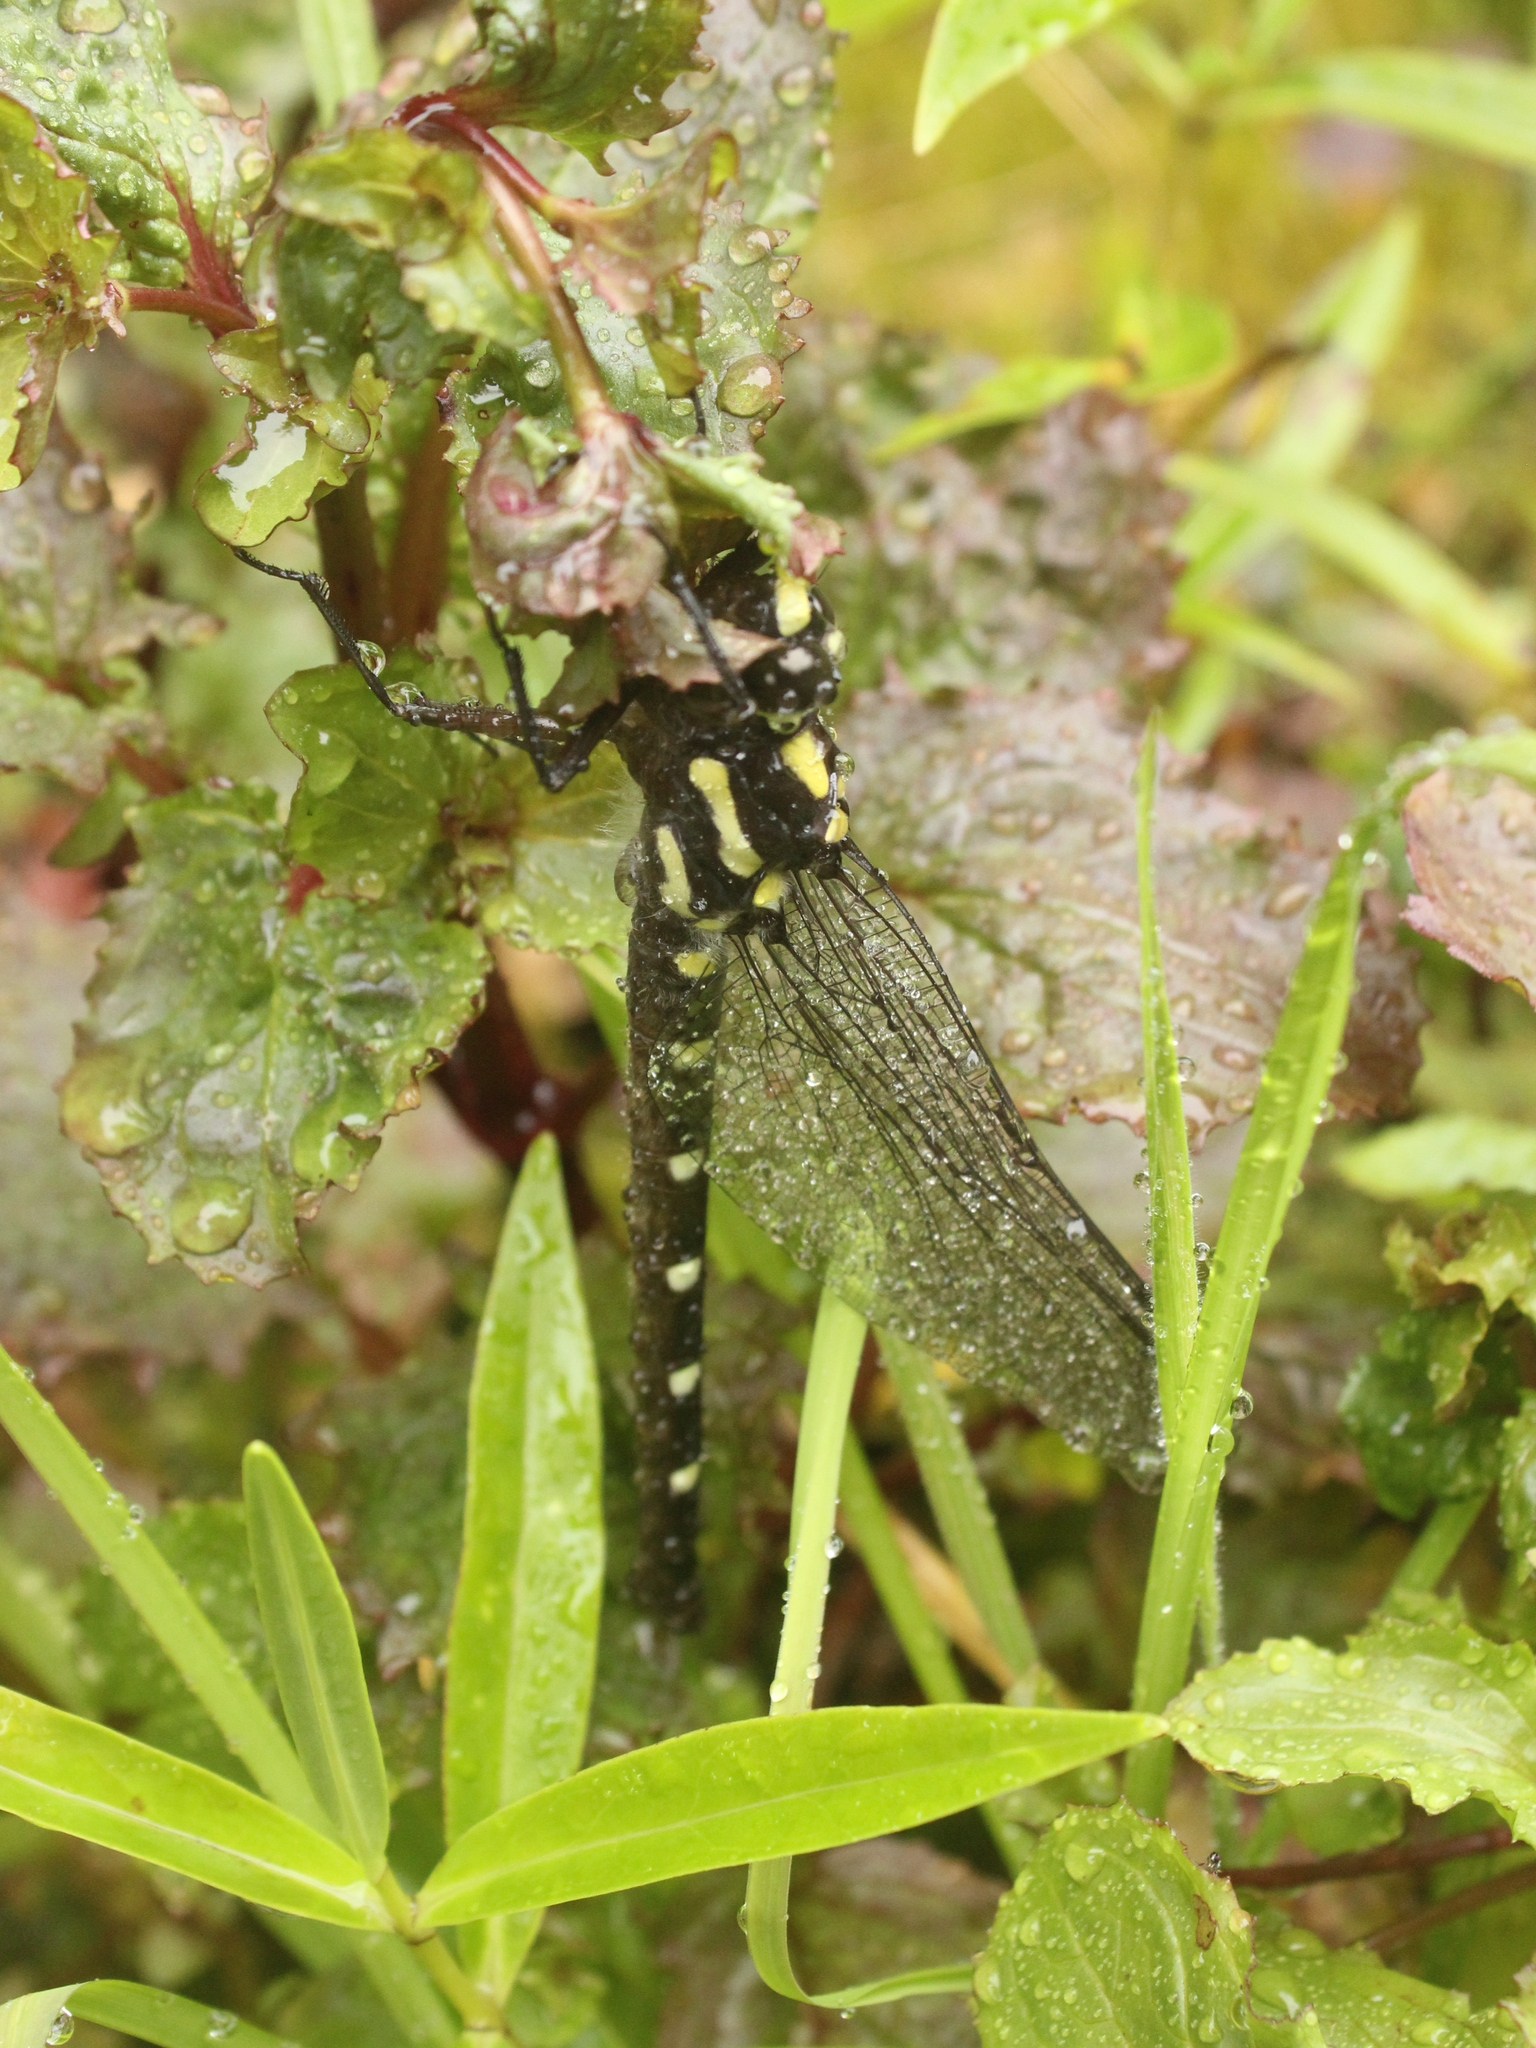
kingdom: Animalia
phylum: Arthropoda
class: Insecta
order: Odonata
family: Petaluridae
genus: Uropetala
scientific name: Uropetala carovei
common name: Bush giant dragonfly
